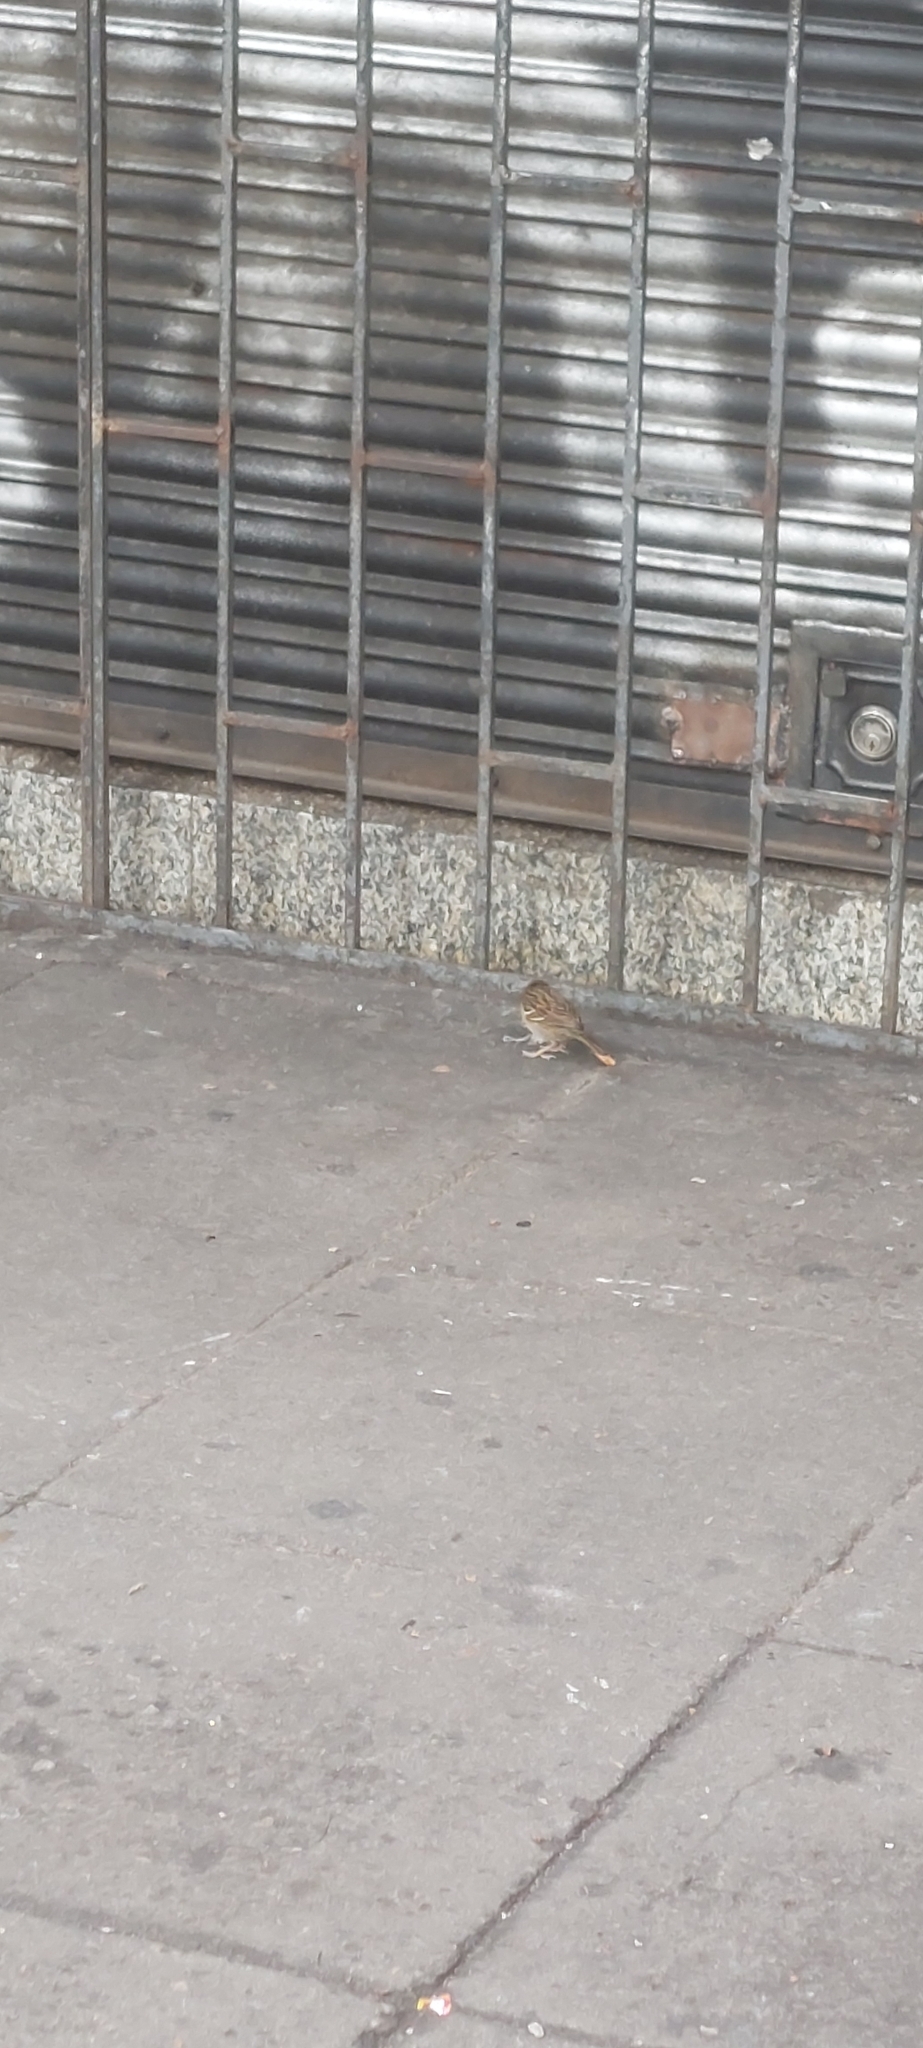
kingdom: Animalia
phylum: Chordata
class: Aves
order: Passeriformes
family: Passerellidae
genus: Zonotrichia
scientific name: Zonotrichia capensis
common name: Rufous-collared sparrow
